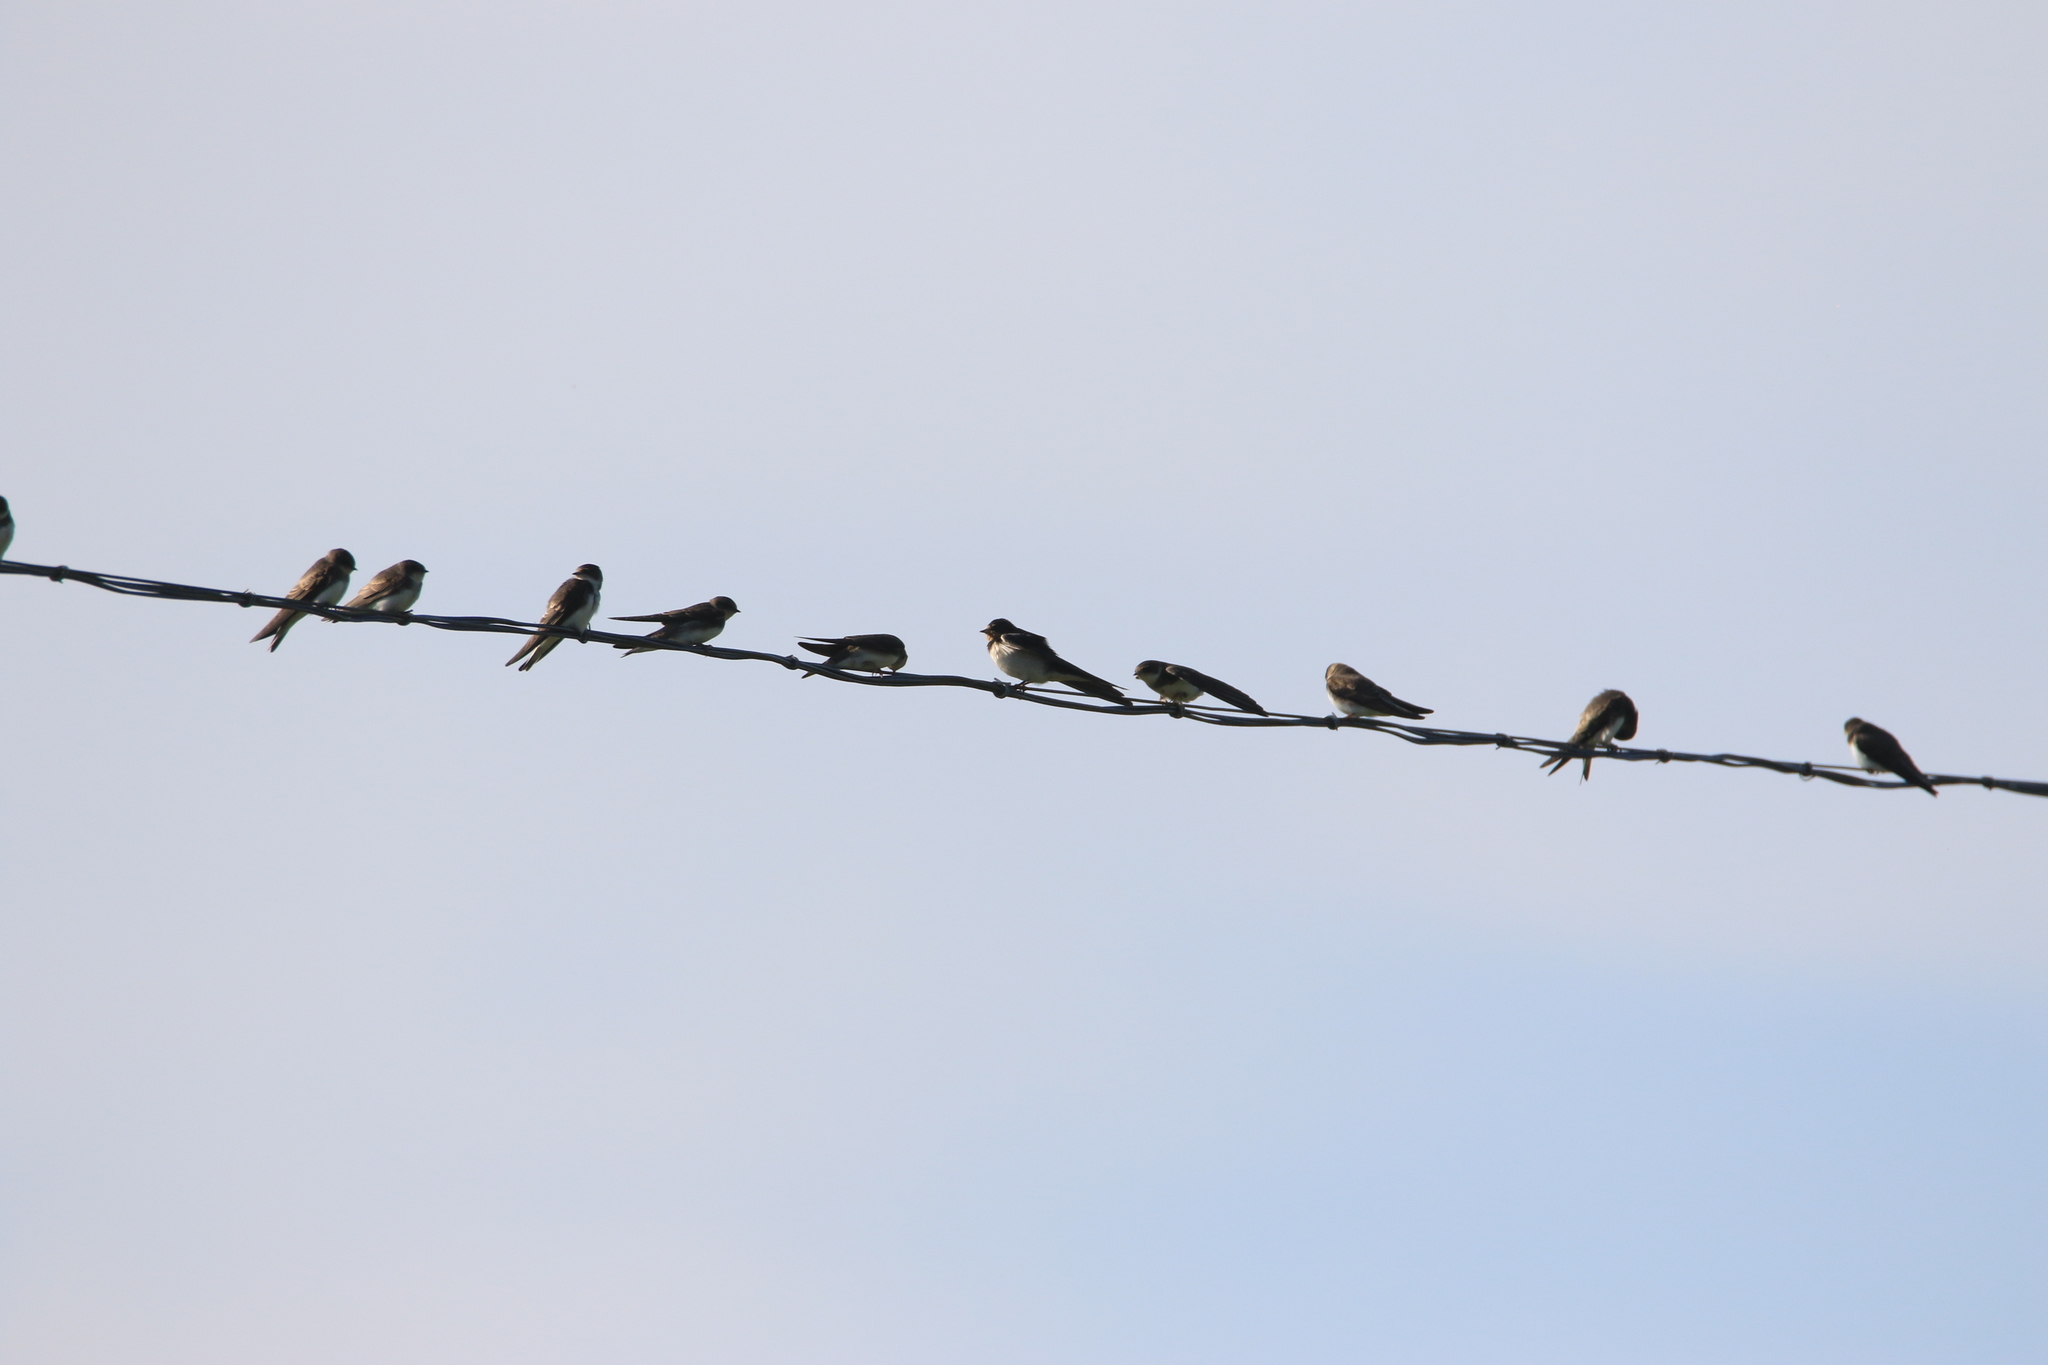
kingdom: Animalia
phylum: Chordata
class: Aves
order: Passeriformes
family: Hirundinidae
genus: Riparia
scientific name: Riparia riparia
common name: Sand martin
